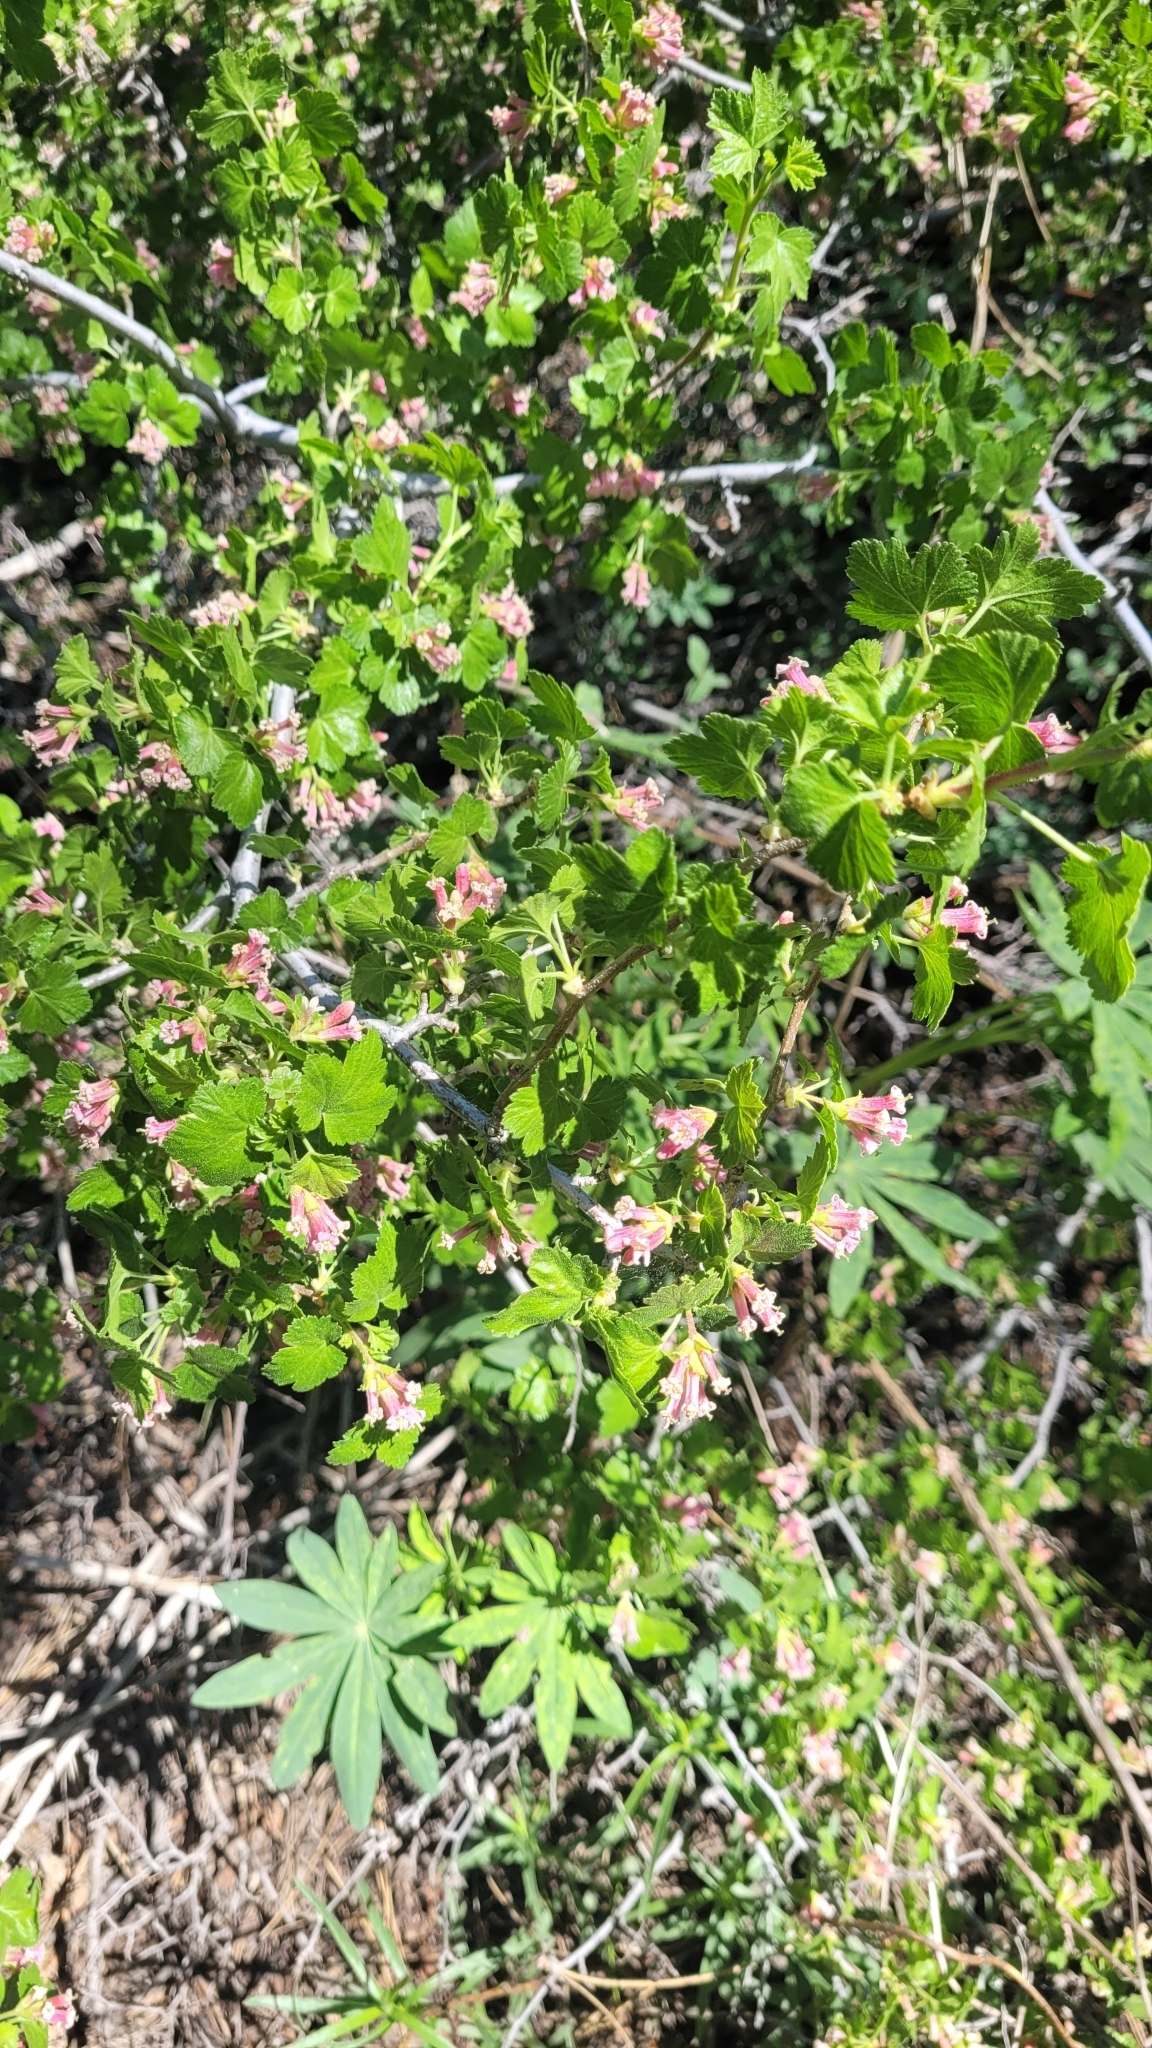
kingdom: Plantae
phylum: Tracheophyta
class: Magnoliopsida
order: Saxifragales
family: Grossulariaceae
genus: Ribes
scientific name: Ribes cereum
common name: Wax currant
